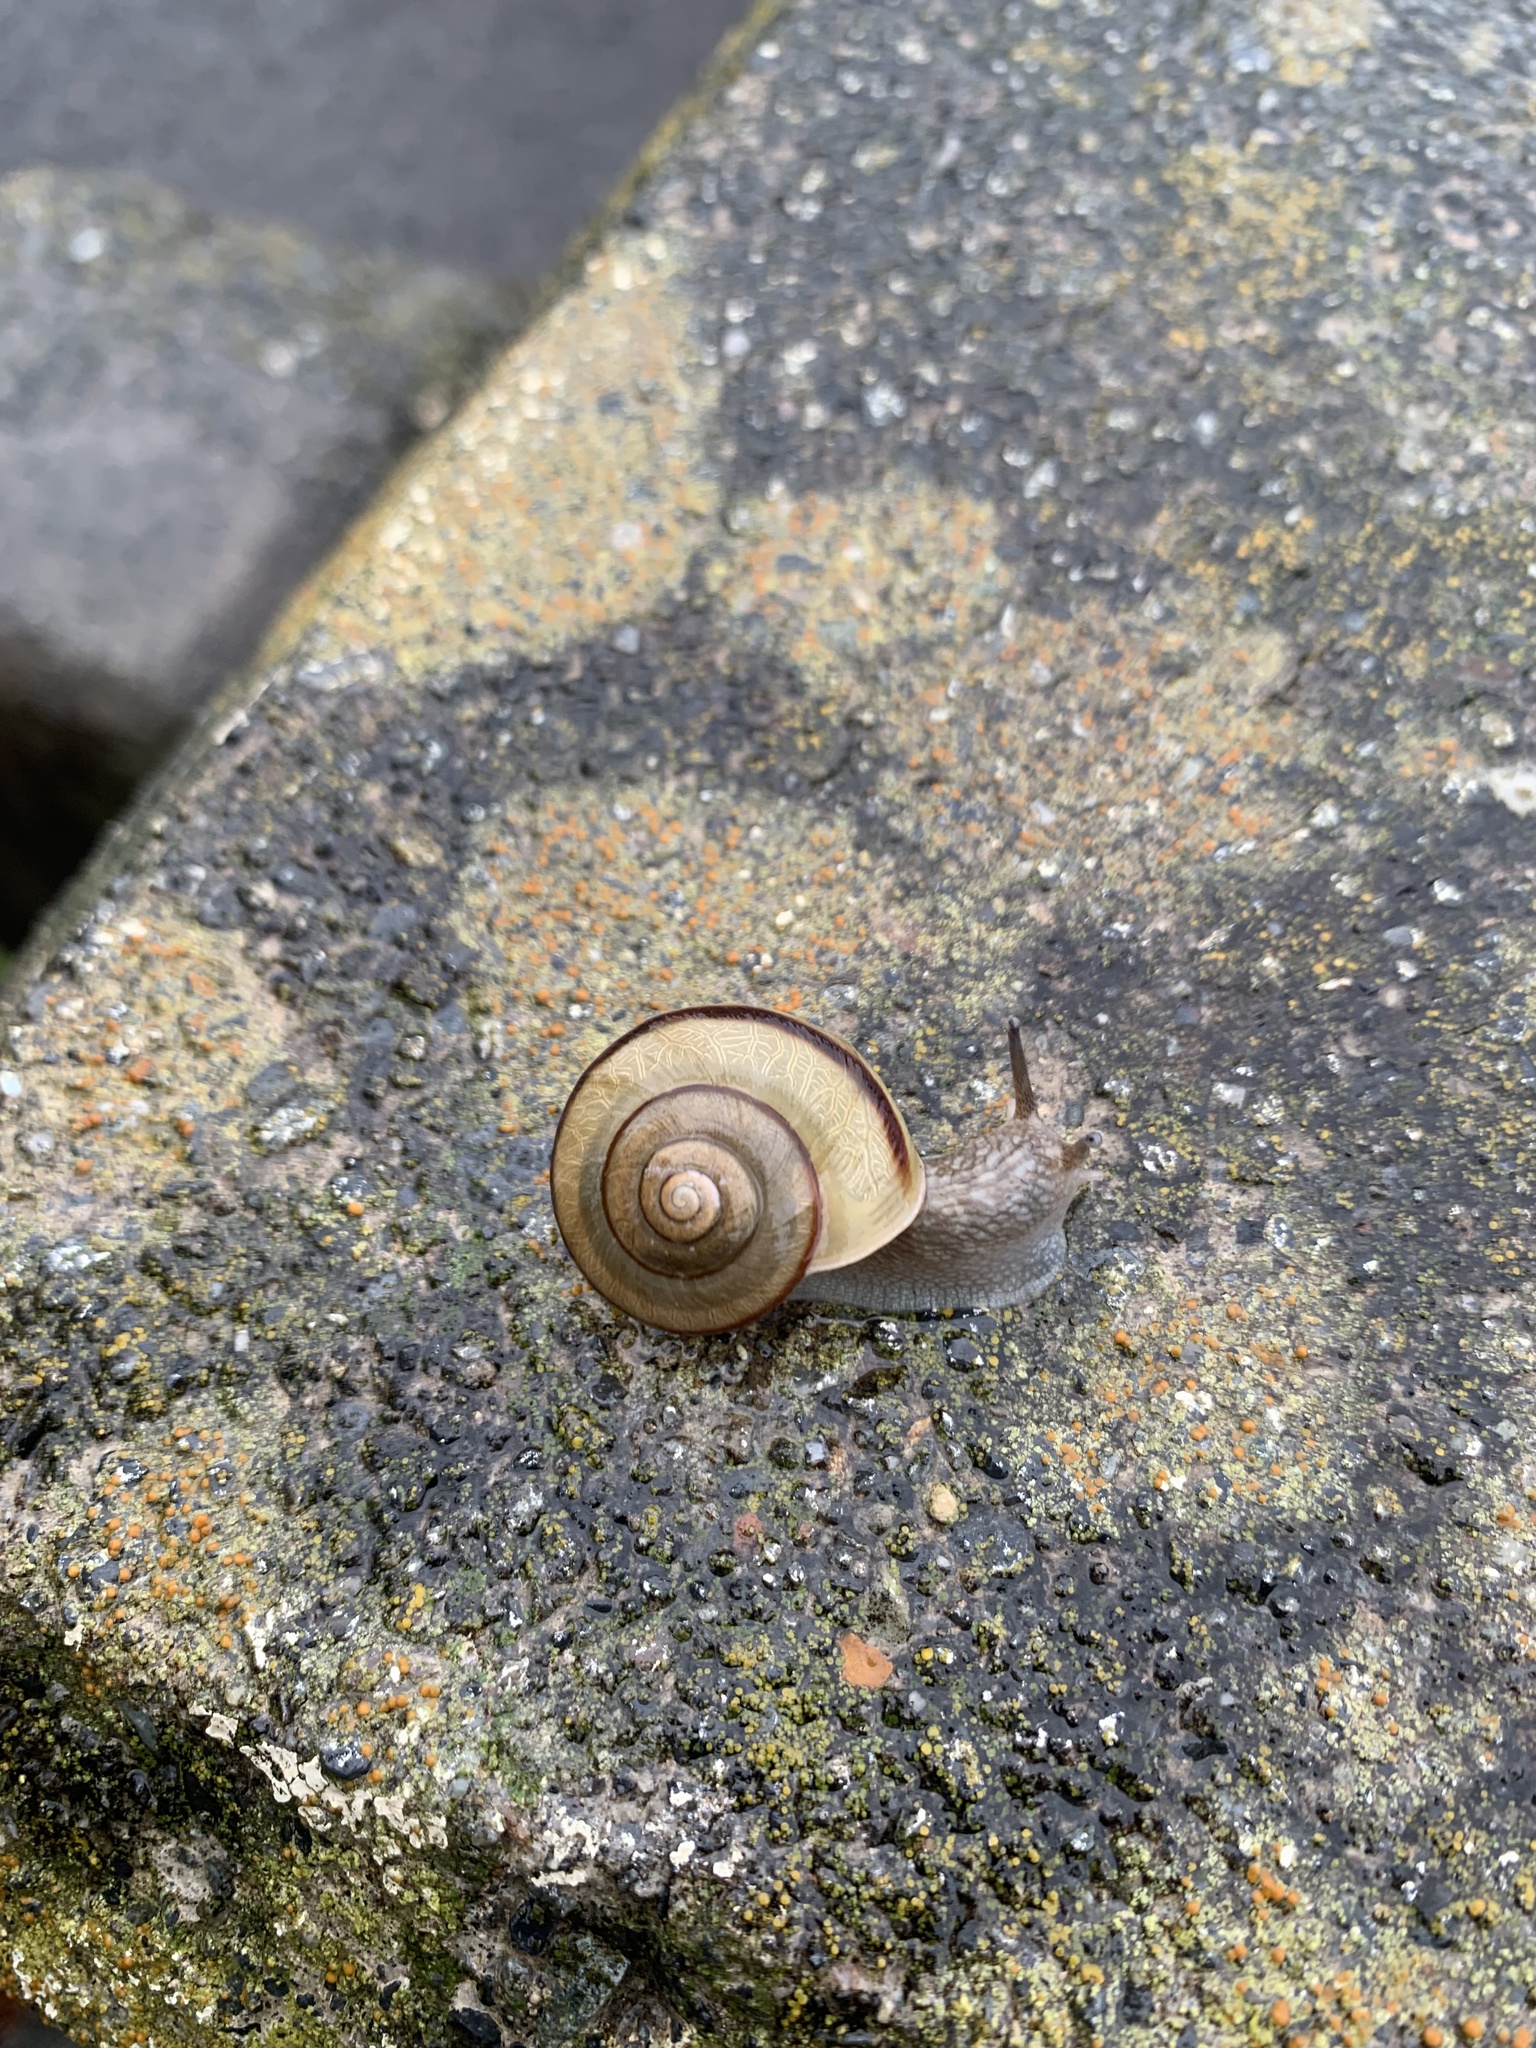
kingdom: Animalia
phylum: Mollusca
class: Gastropoda
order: Stylommatophora
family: Camaenidae
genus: Euhadra
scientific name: Euhadra peliomphala
